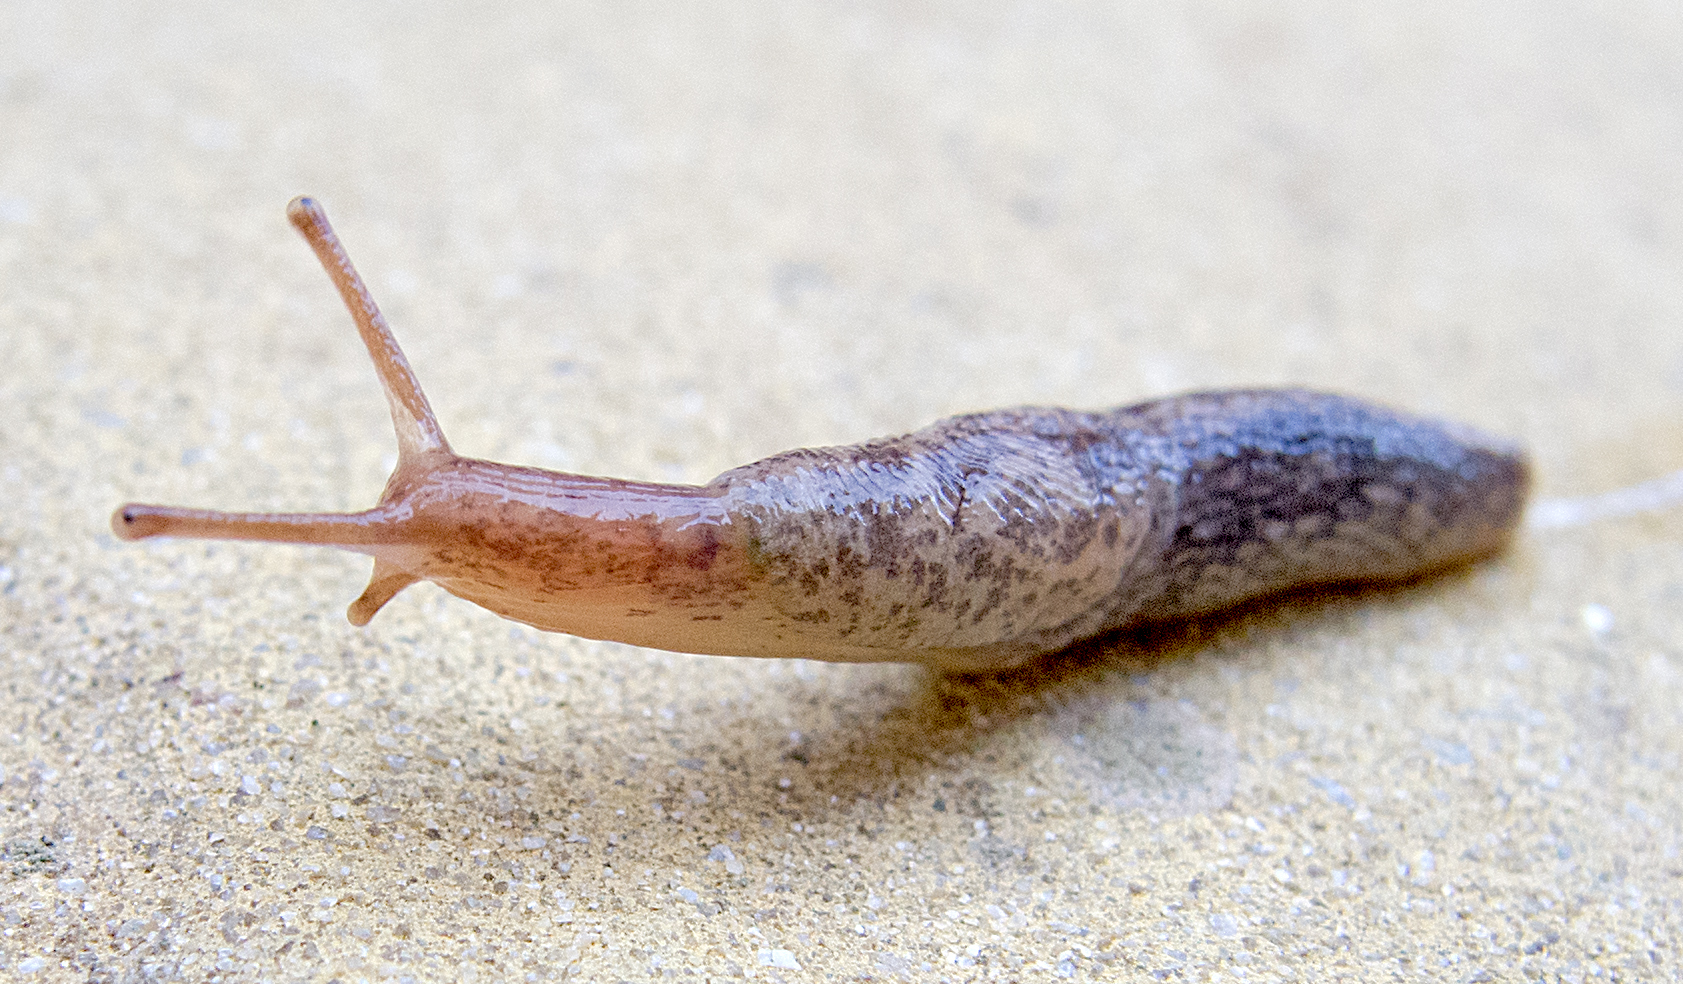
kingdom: Animalia
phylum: Mollusca
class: Gastropoda
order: Stylommatophora
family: Agriolimacidae
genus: Deroceras
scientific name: Deroceras reticulatum
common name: Gray field slug
